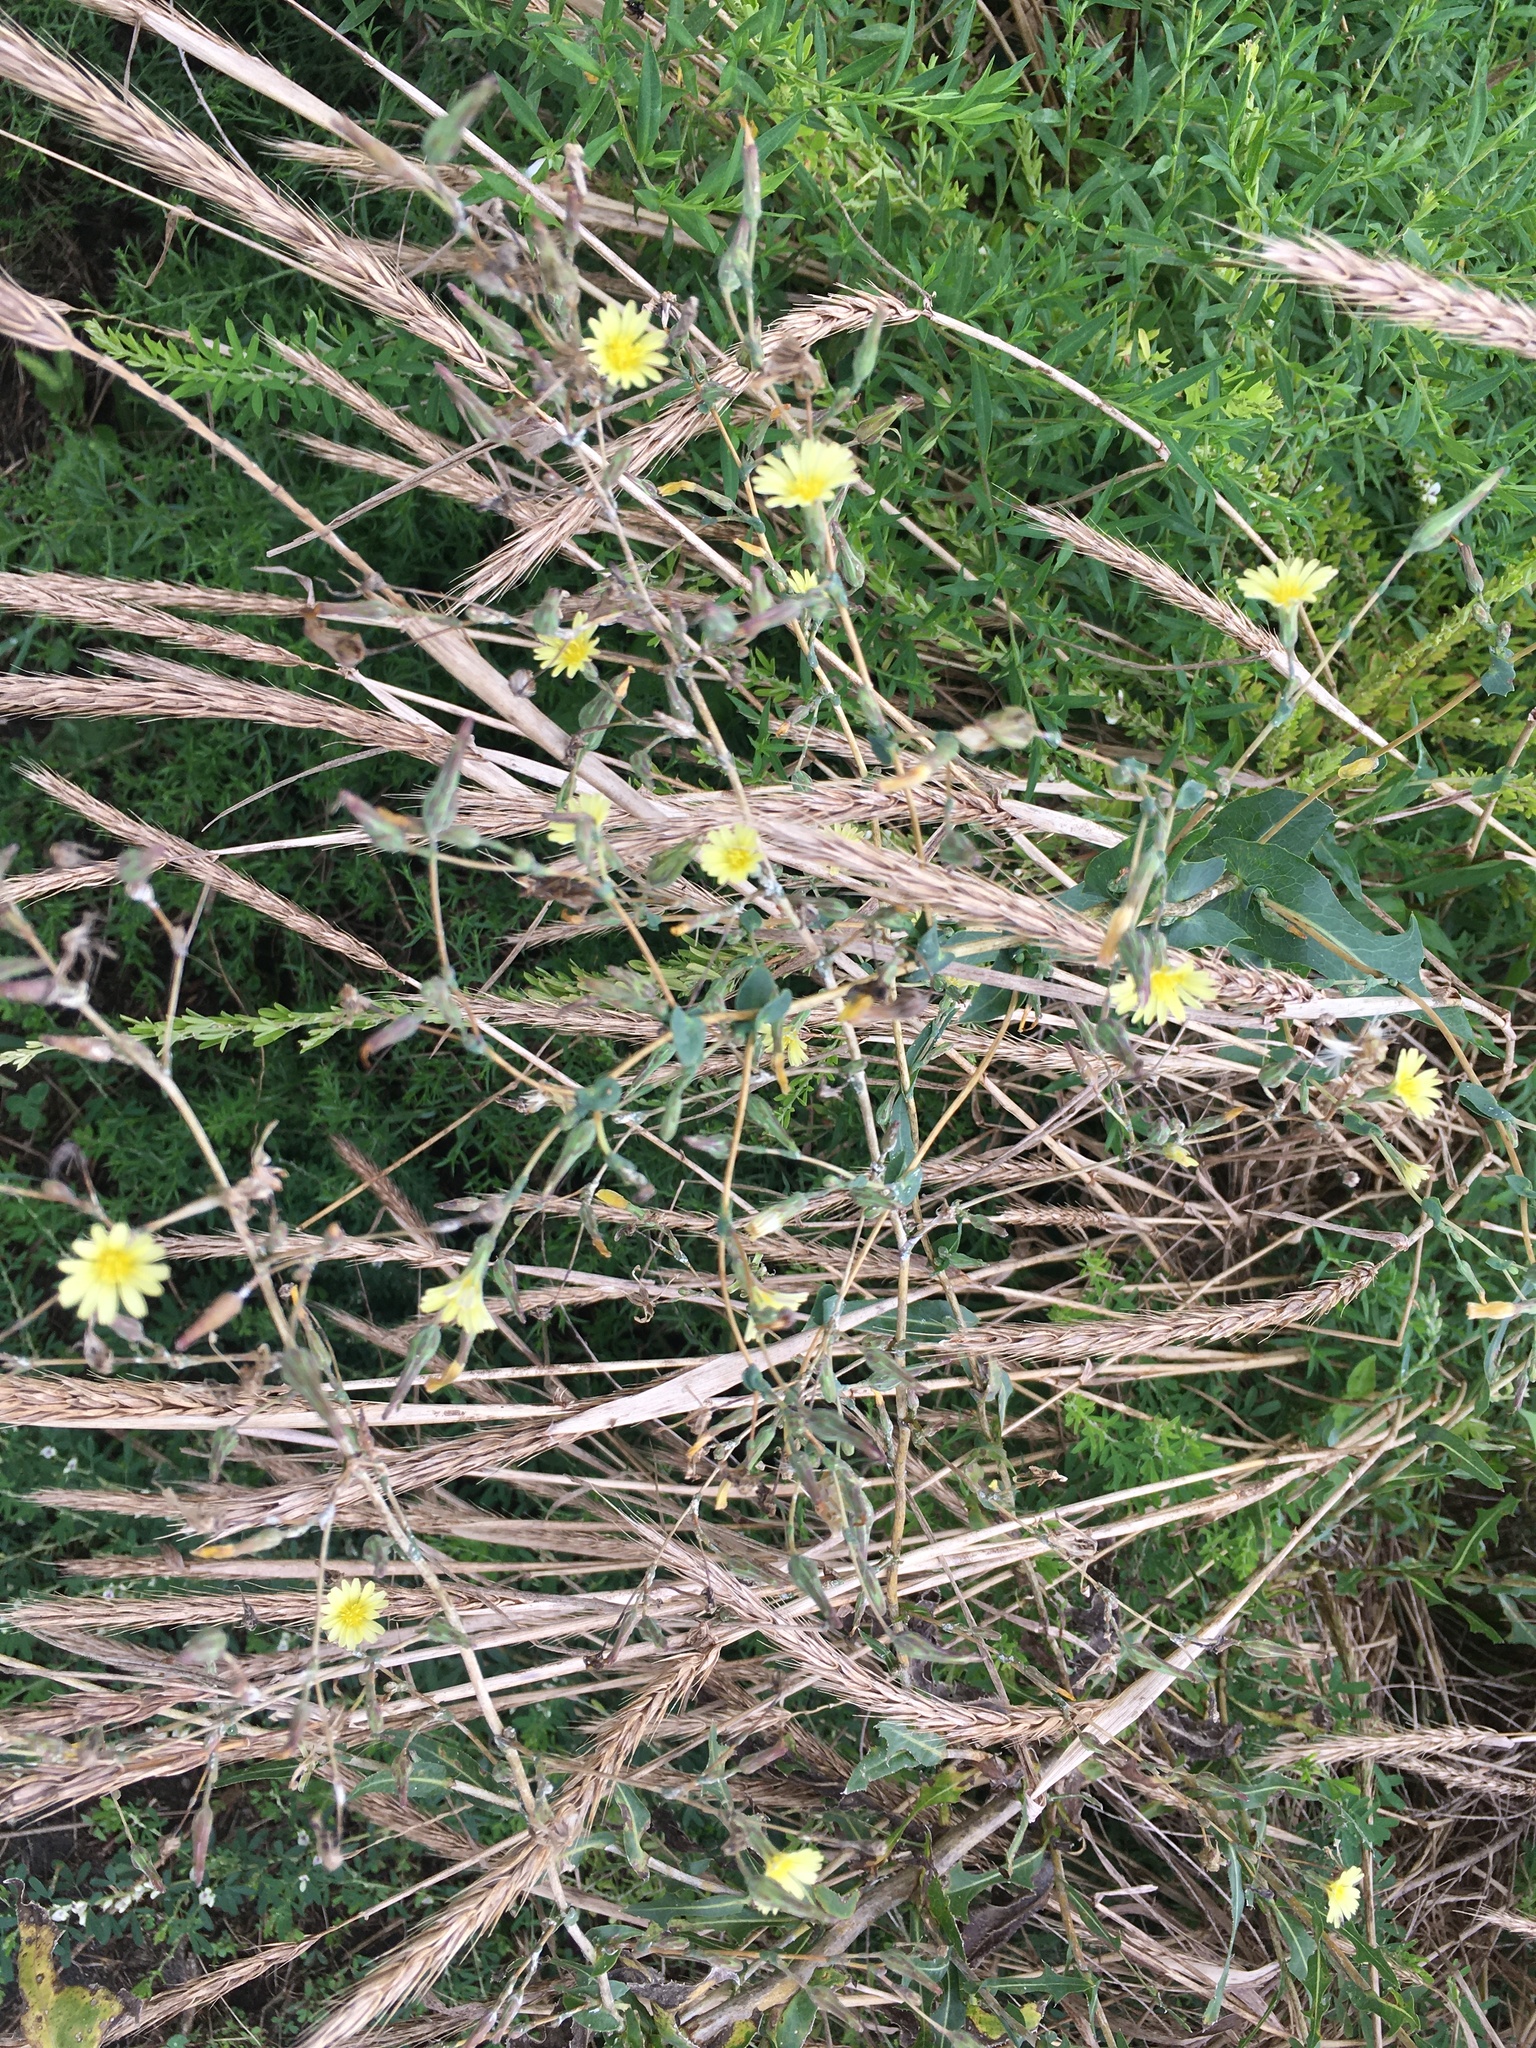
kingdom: Plantae
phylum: Tracheophyta
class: Magnoliopsida
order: Asterales
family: Asteraceae
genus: Lactuca
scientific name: Lactuca serriola
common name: Prickly lettuce
